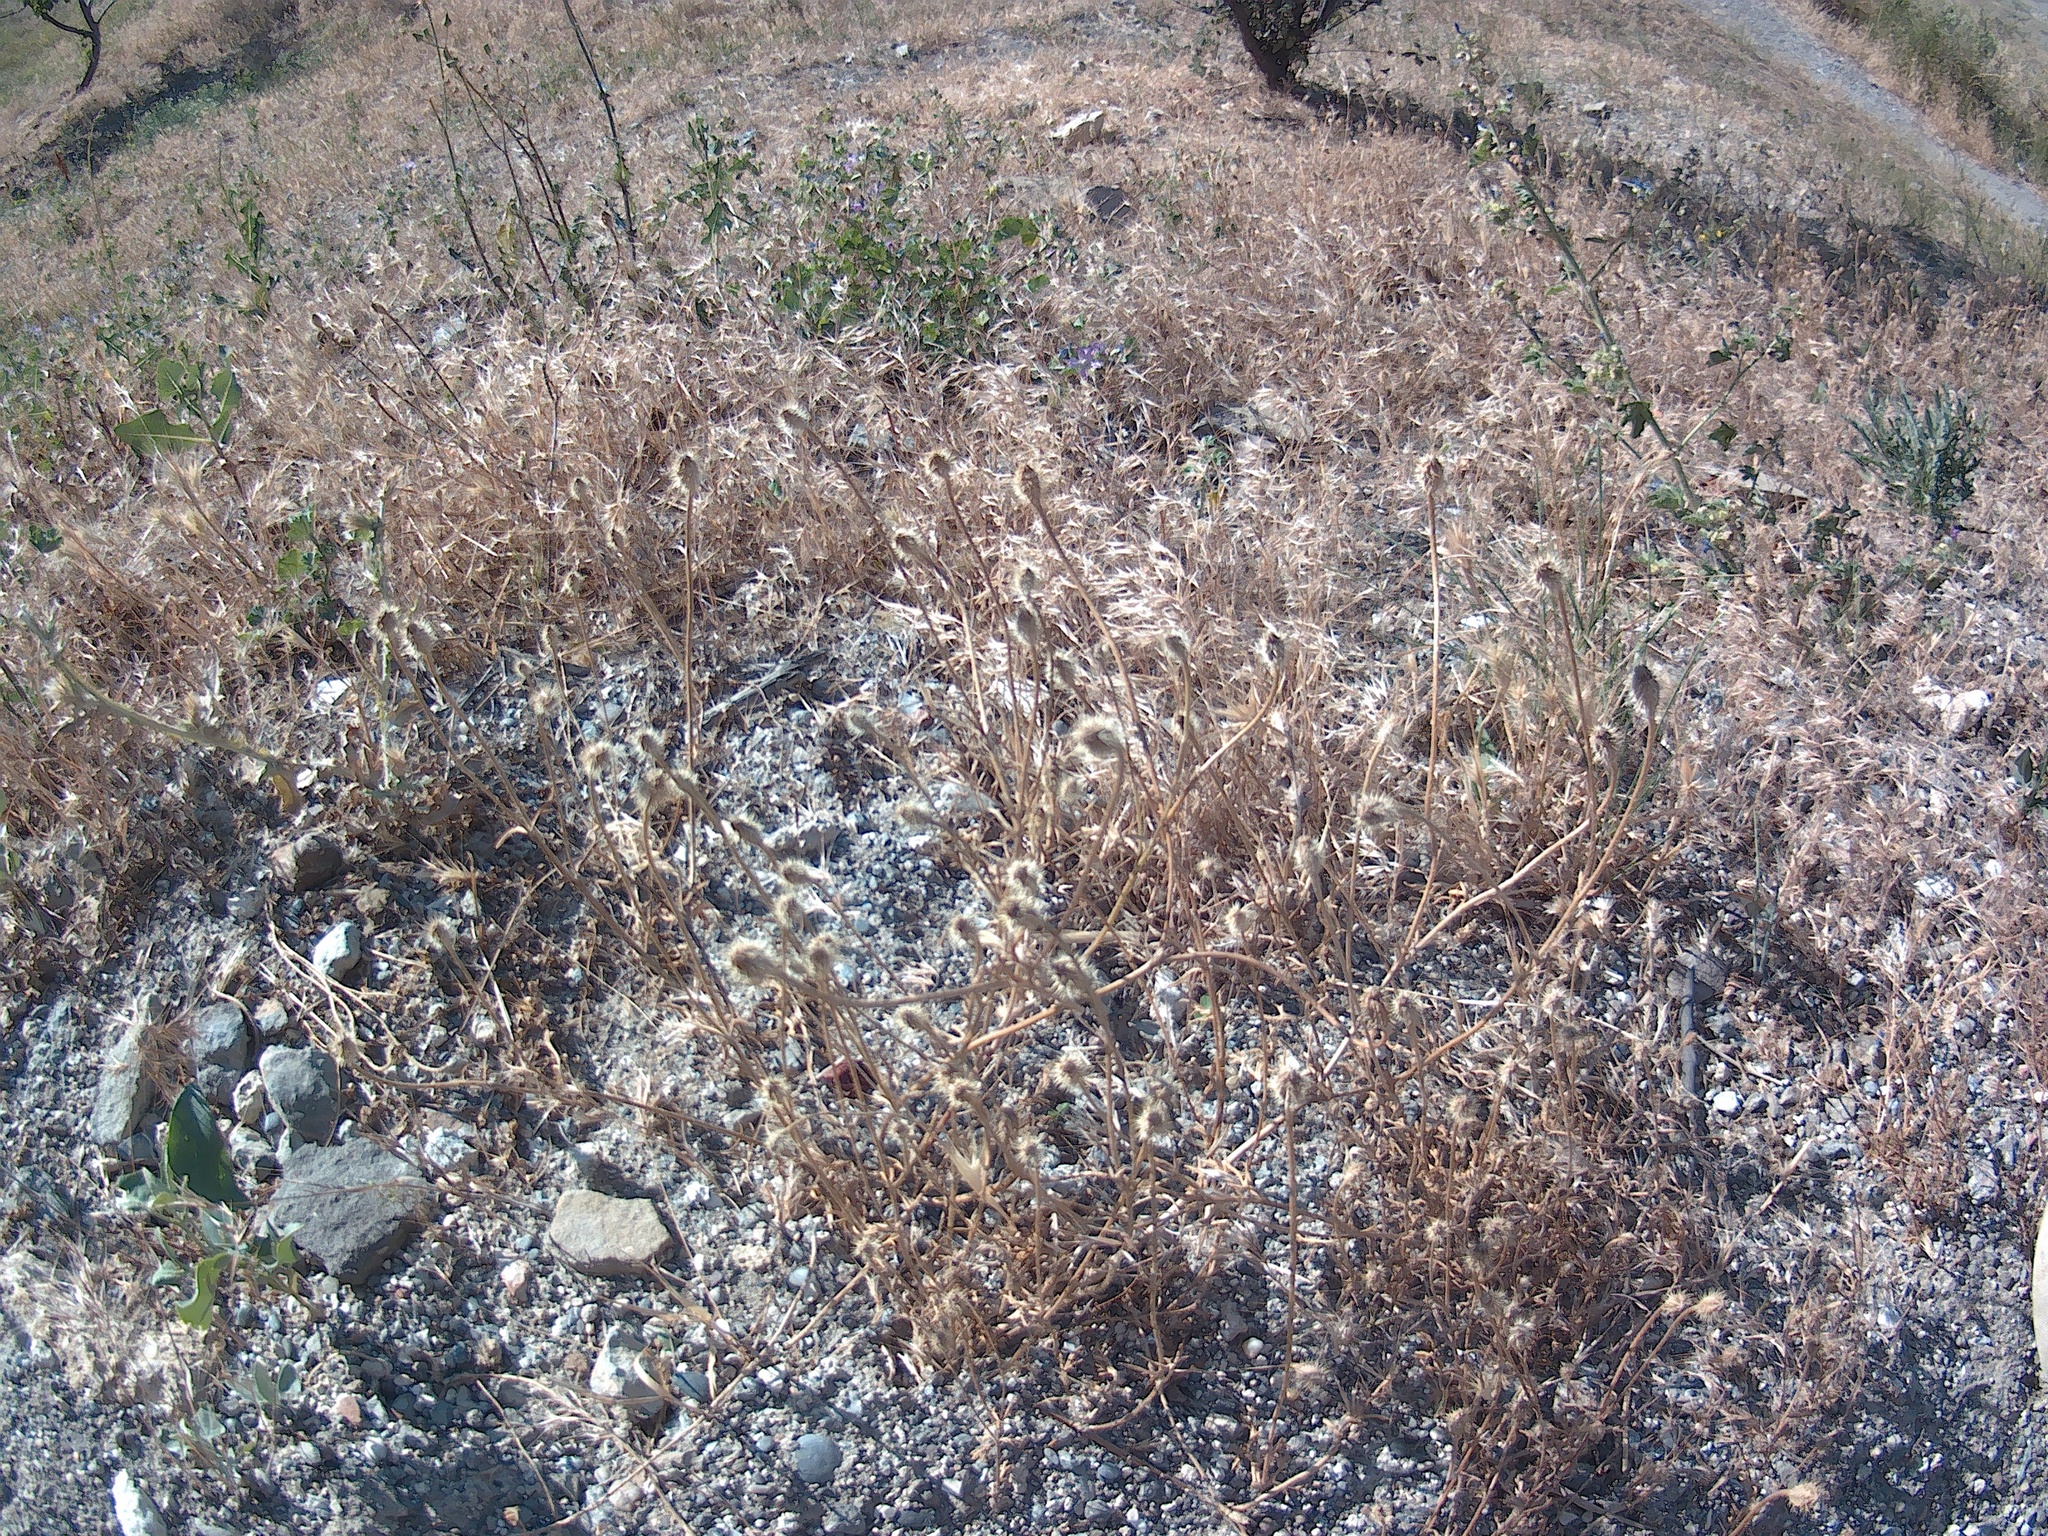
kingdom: Plantae
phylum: Tracheophyta
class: Magnoliopsida
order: Ranunculales
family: Papaveraceae
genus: Roemeria
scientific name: Roemeria hispida
